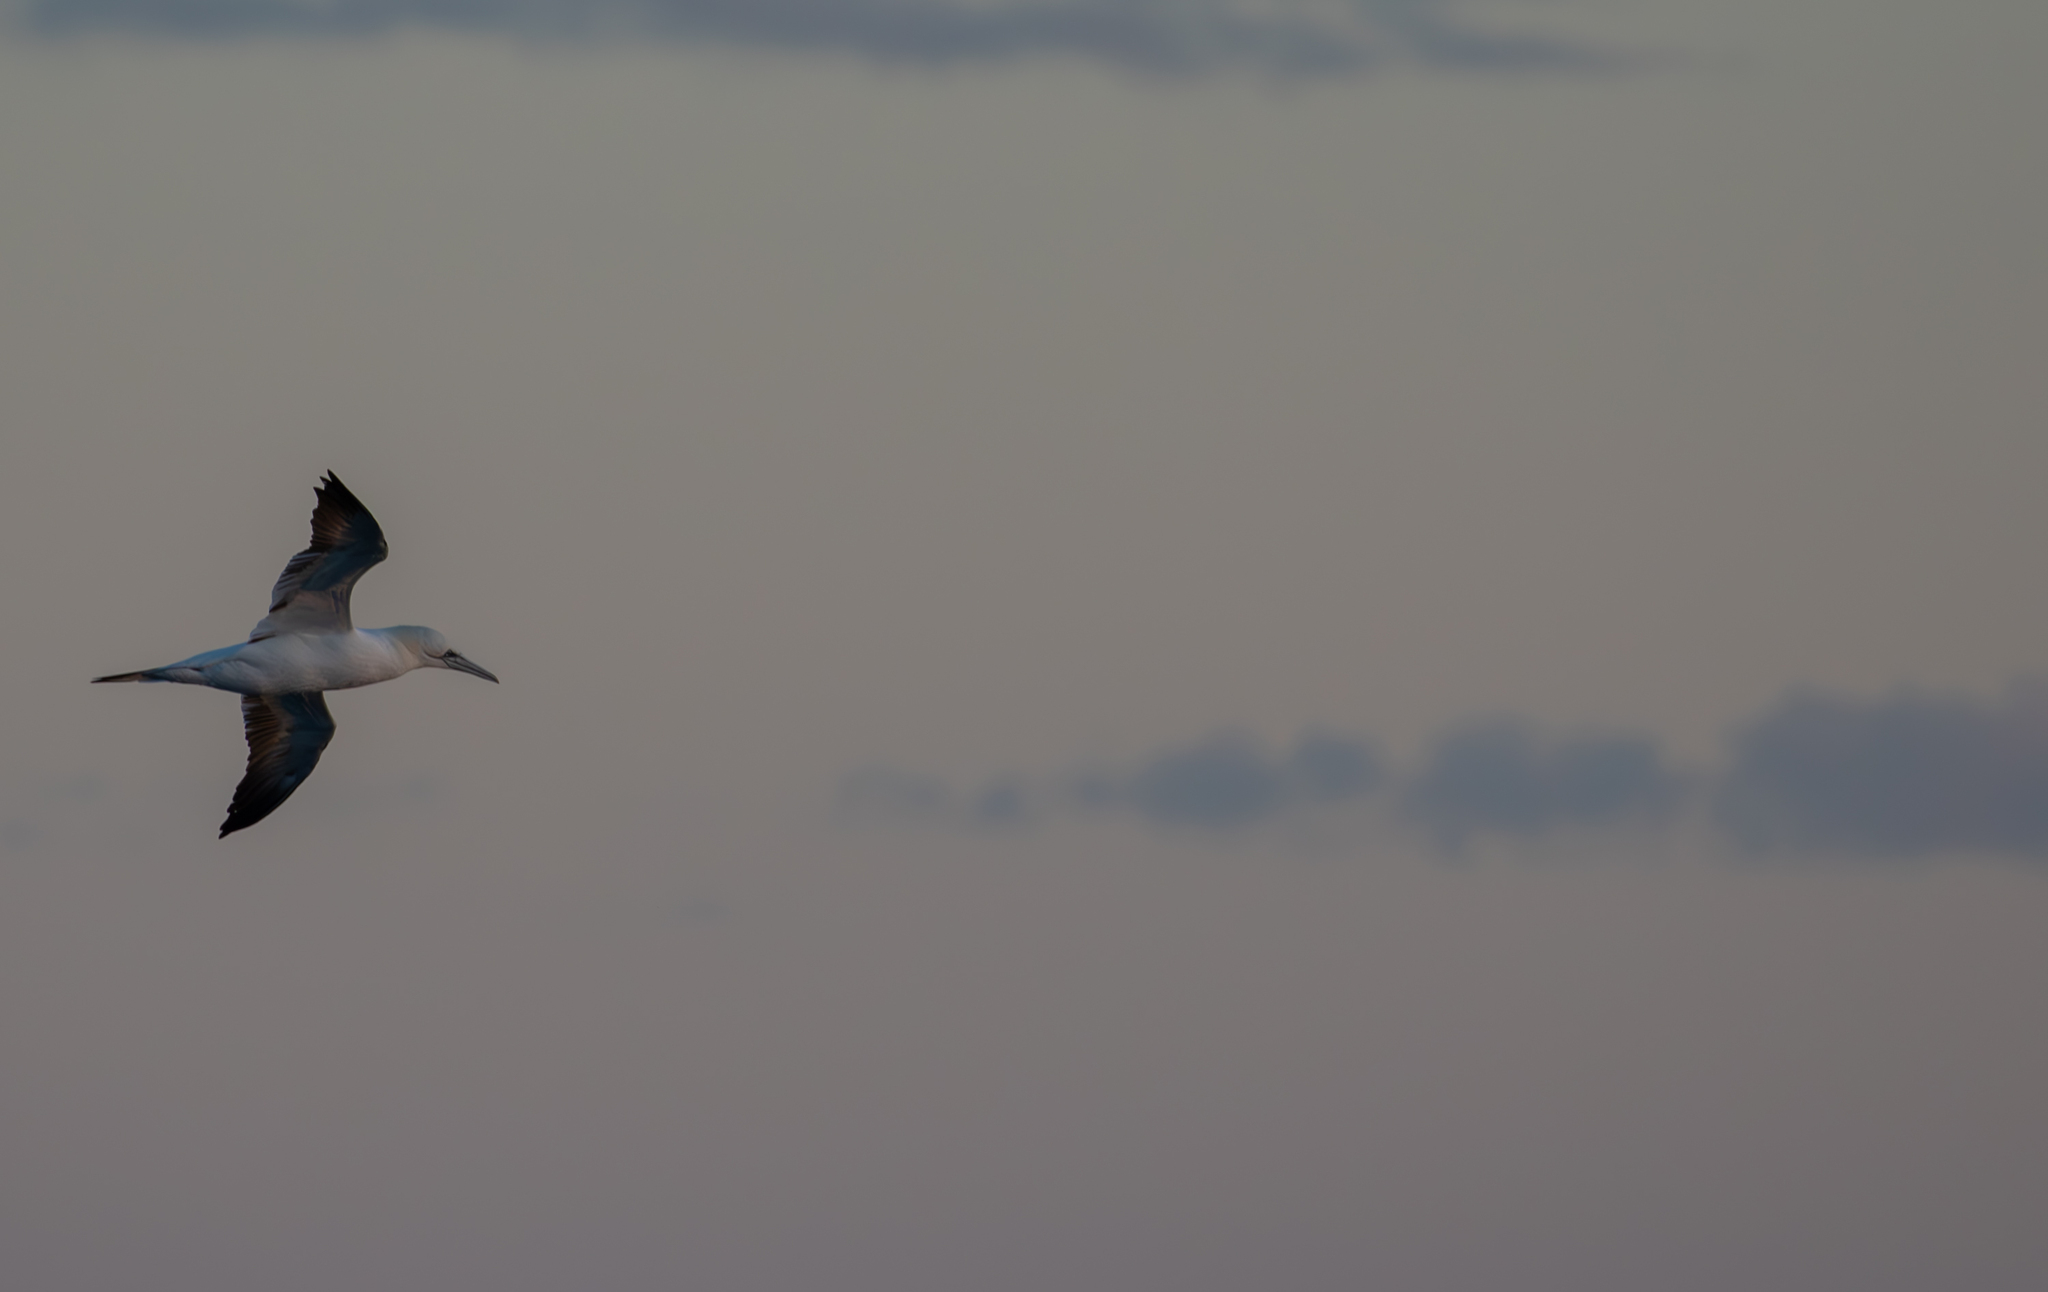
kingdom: Animalia
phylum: Chordata
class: Aves
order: Suliformes
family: Sulidae
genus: Morus
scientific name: Morus bassanus
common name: Northern gannet
